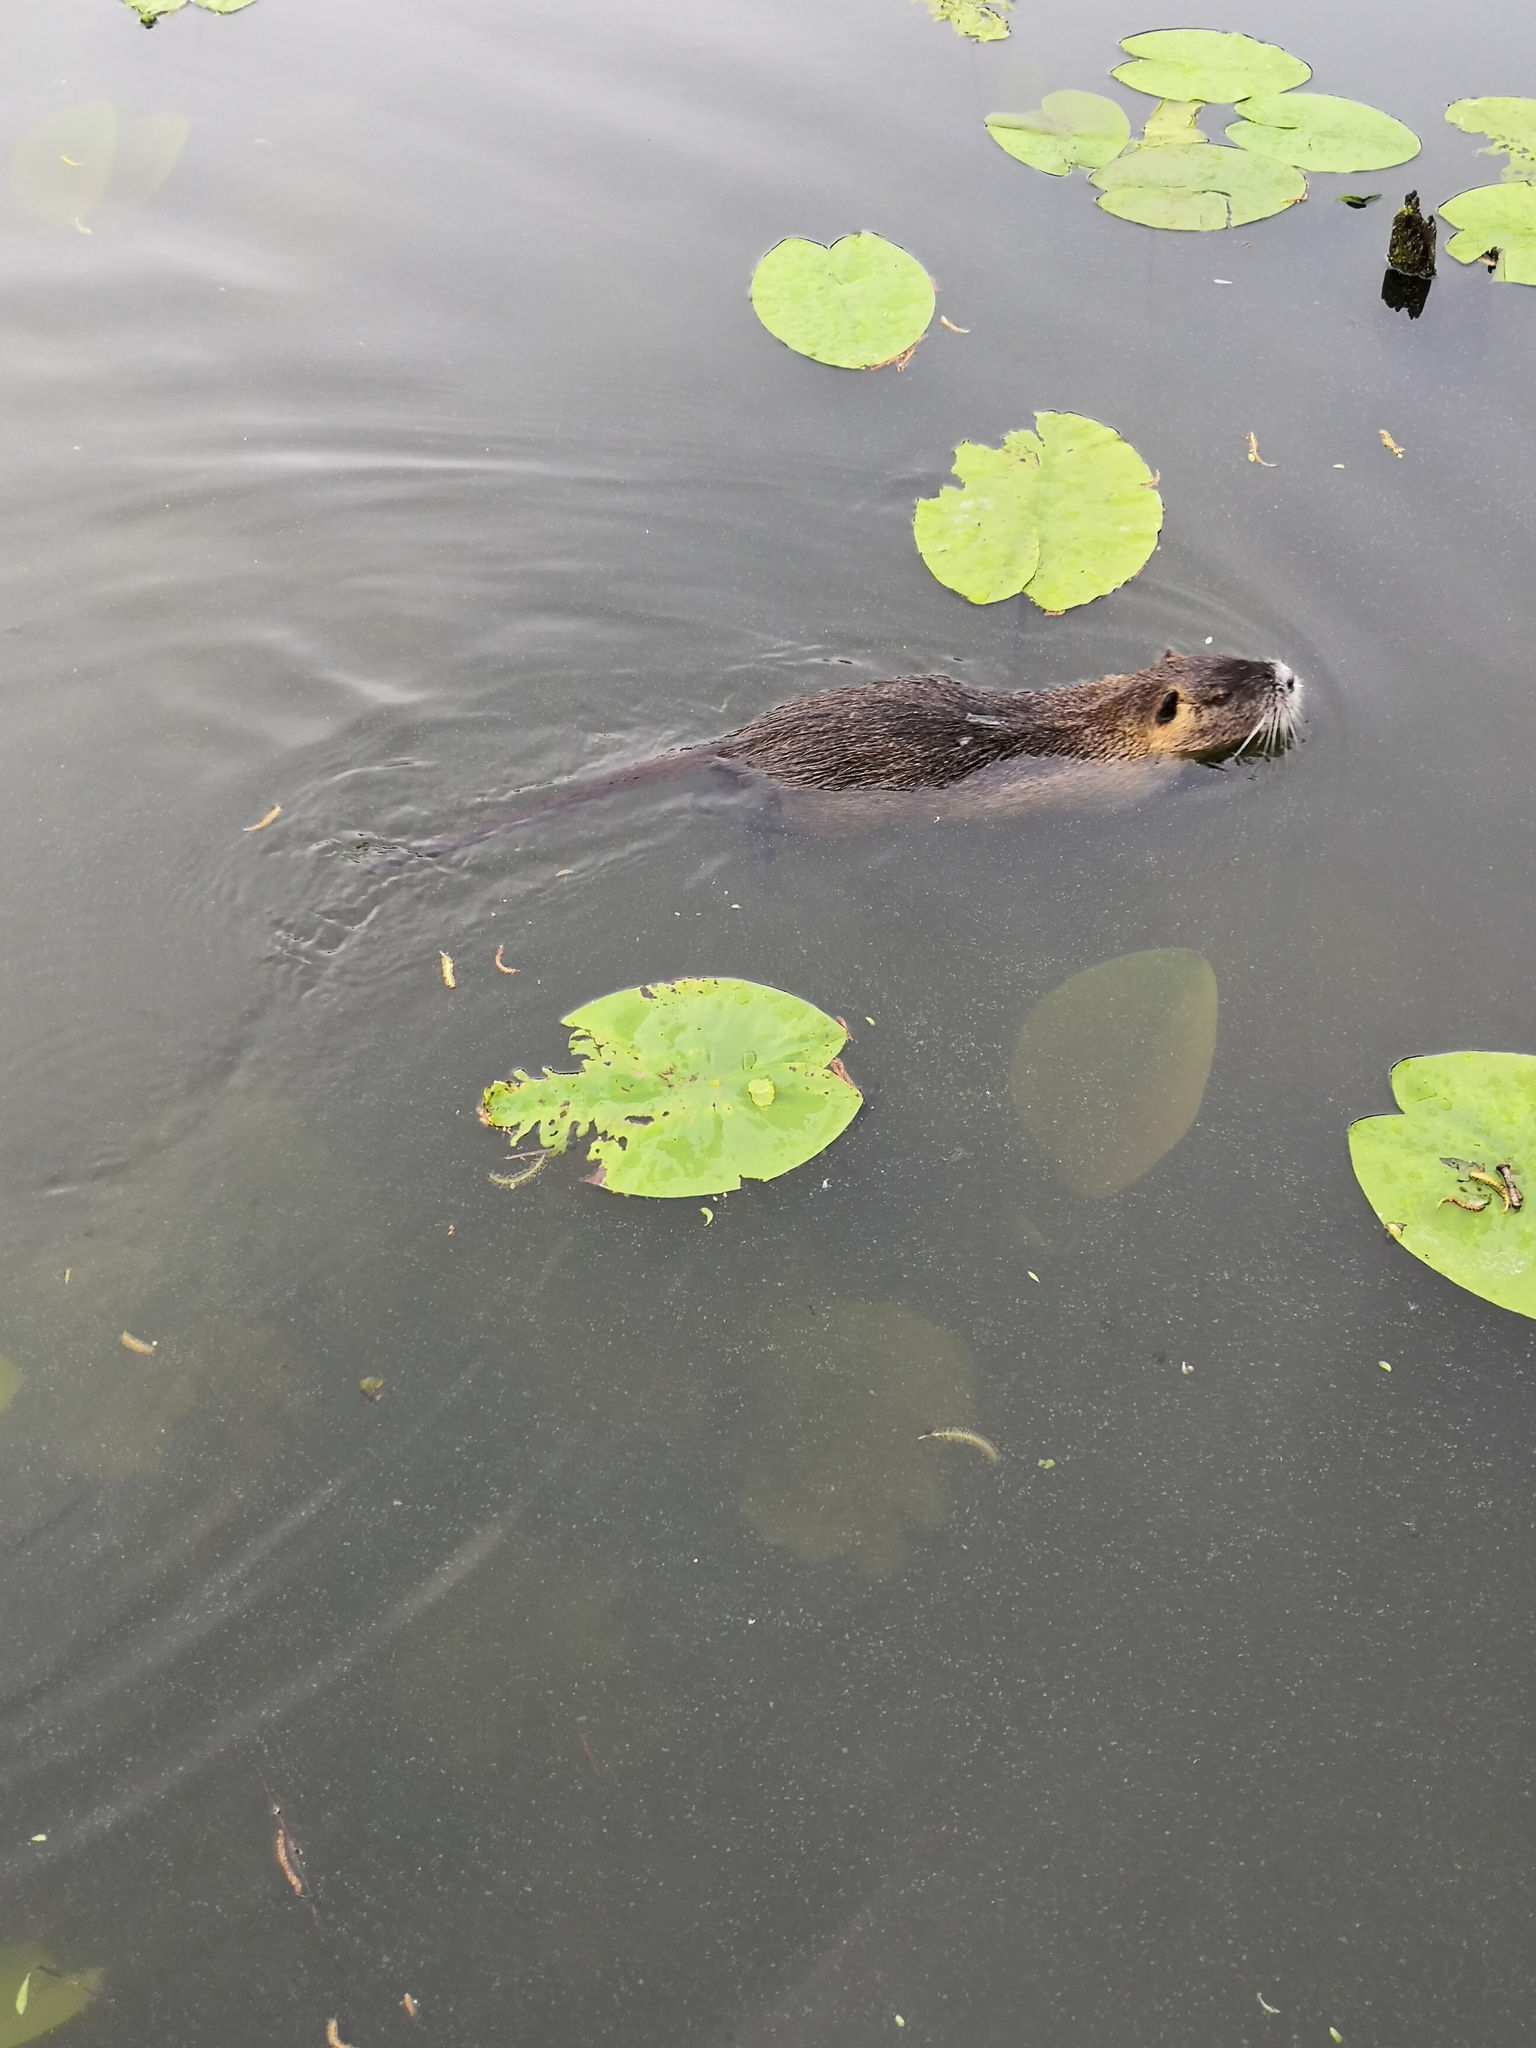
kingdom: Animalia
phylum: Chordata
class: Mammalia
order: Rodentia
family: Myocastoridae
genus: Myocastor
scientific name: Myocastor coypus
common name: Coypu
